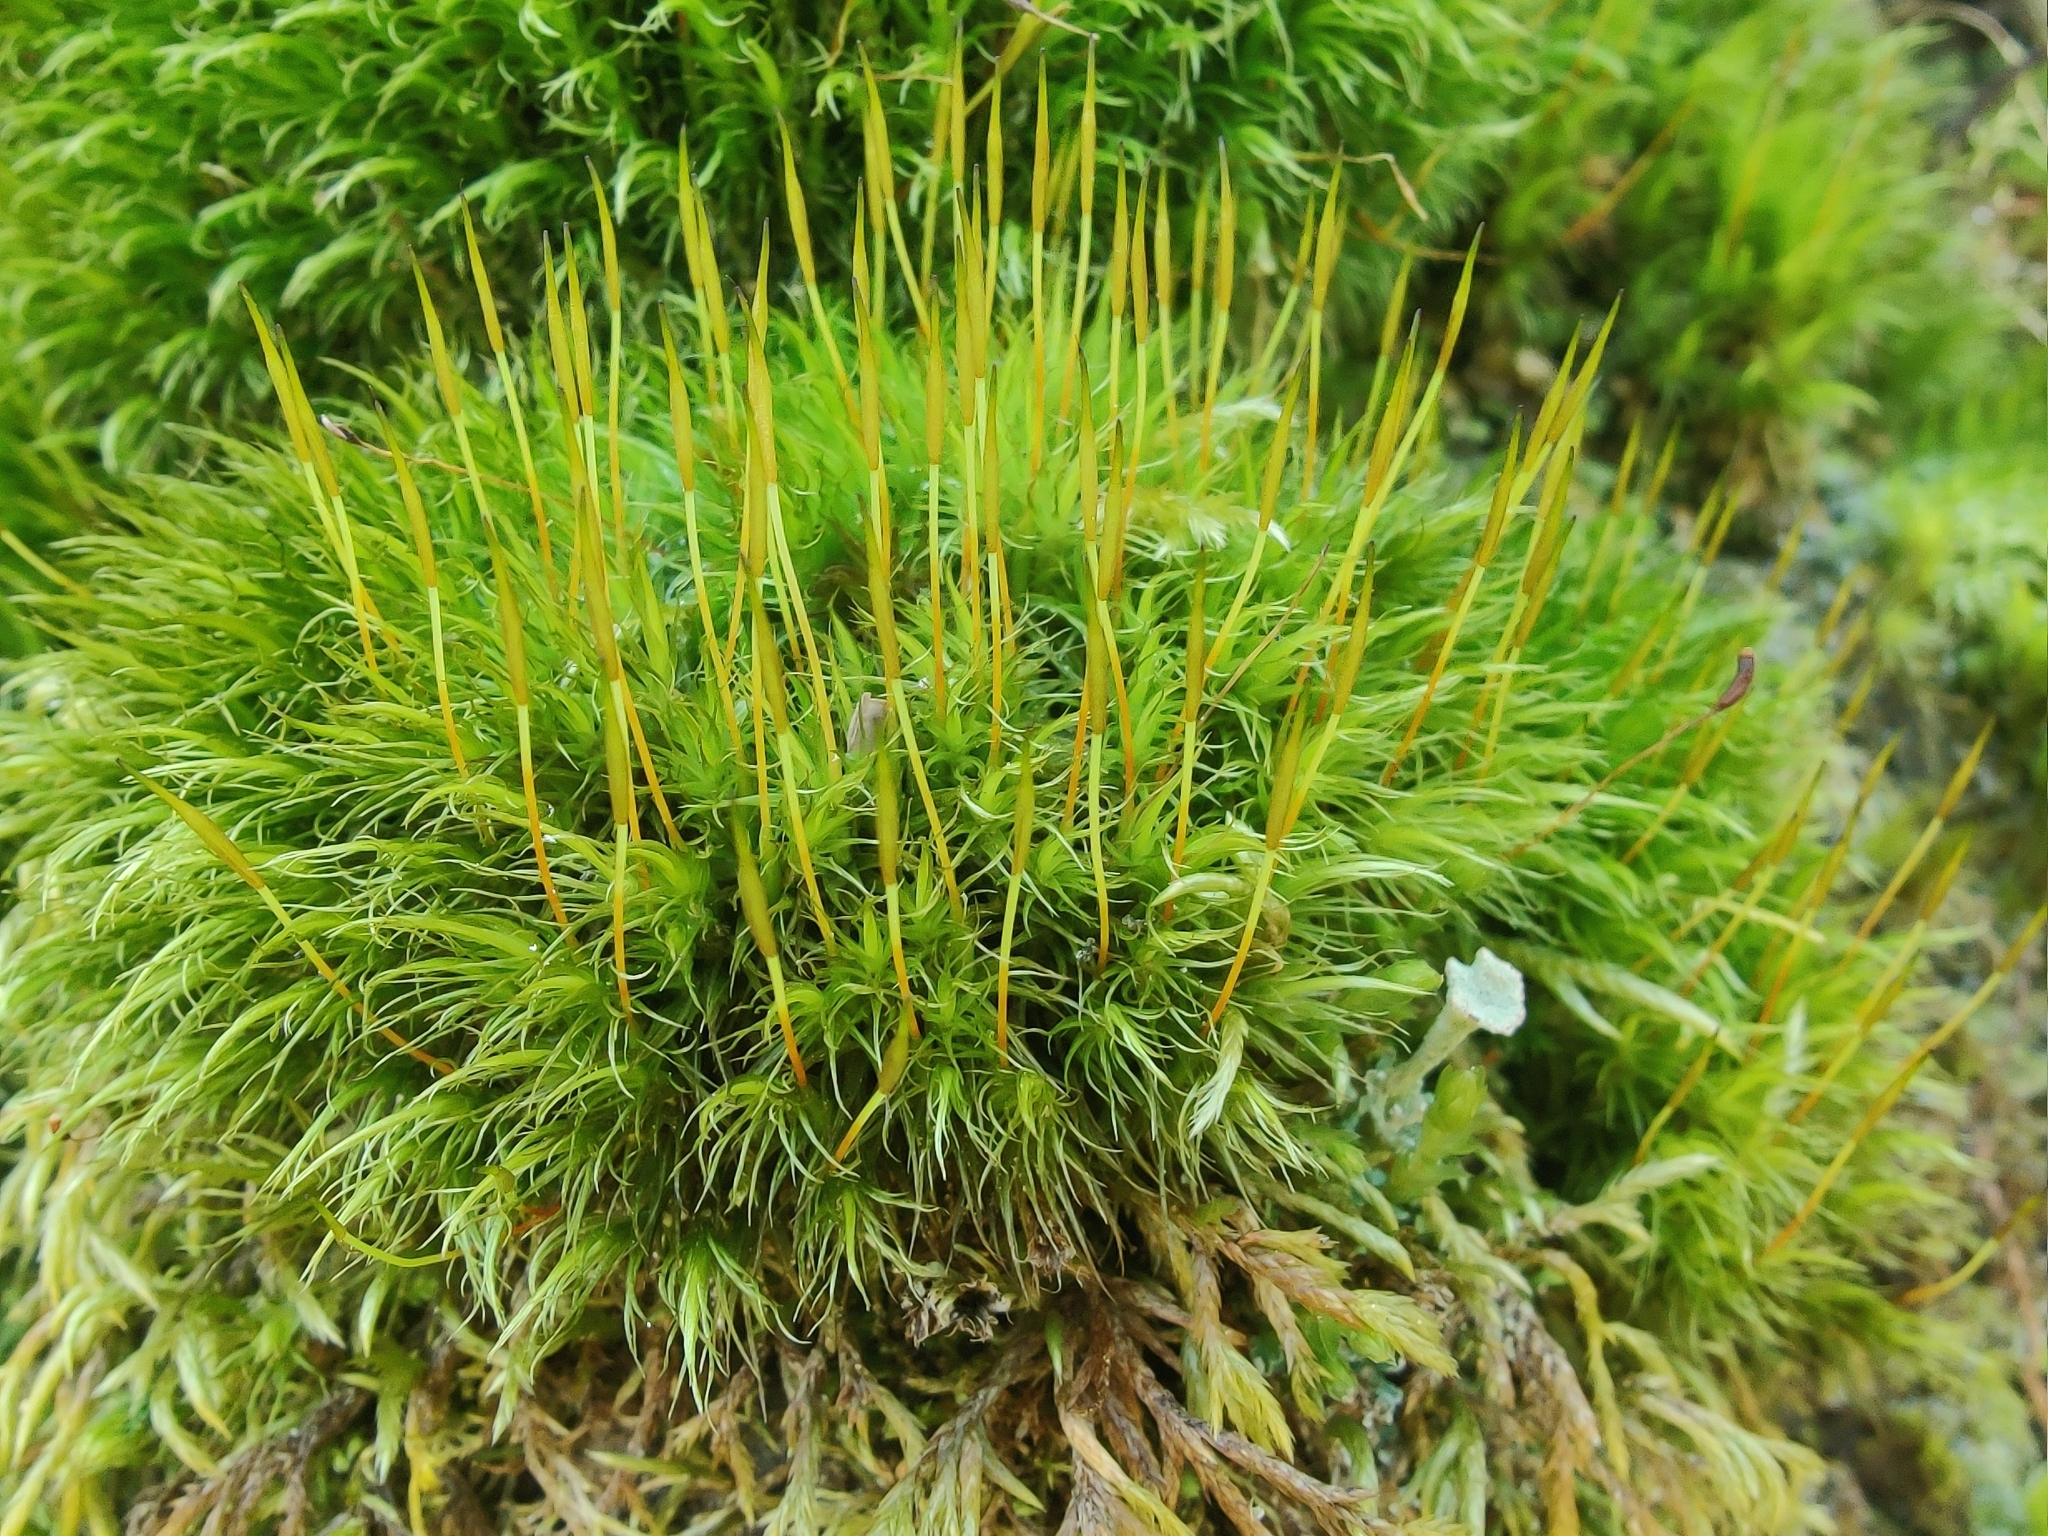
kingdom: Plantae
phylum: Bryophyta
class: Bryopsida
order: Dicranales
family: Dicranaceae
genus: Dicranum
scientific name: Dicranum scoparium
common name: Broom fork-moss
